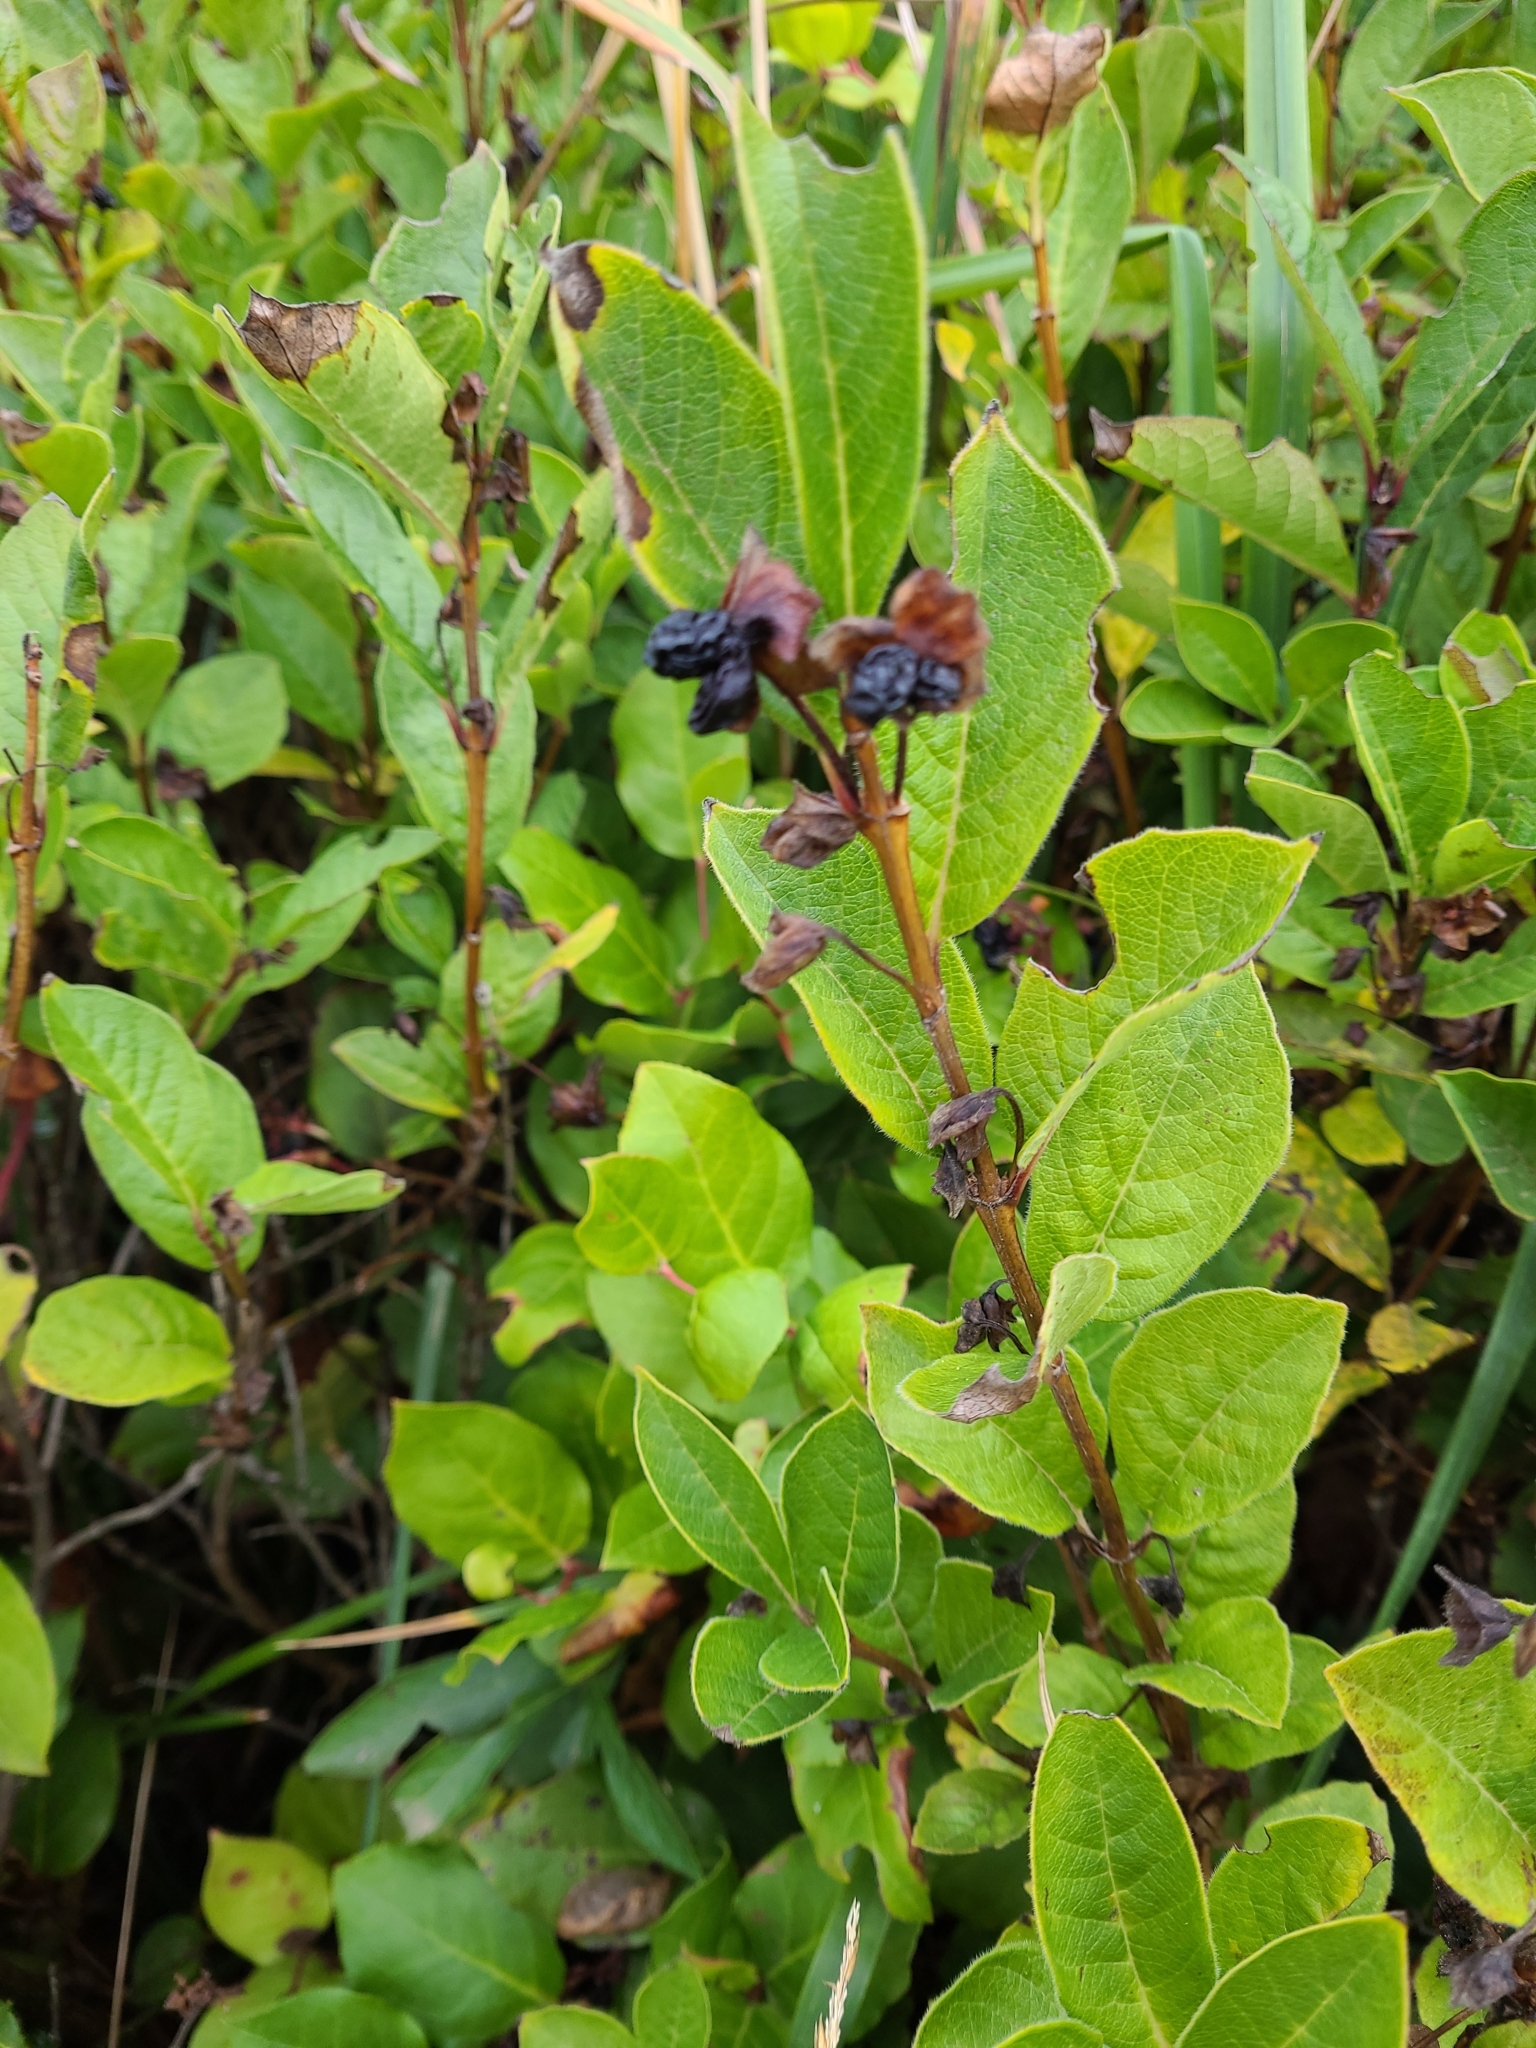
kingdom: Plantae
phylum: Tracheophyta
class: Magnoliopsida
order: Dipsacales
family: Caprifoliaceae
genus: Lonicera
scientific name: Lonicera involucrata
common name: Californian honeysuckle
